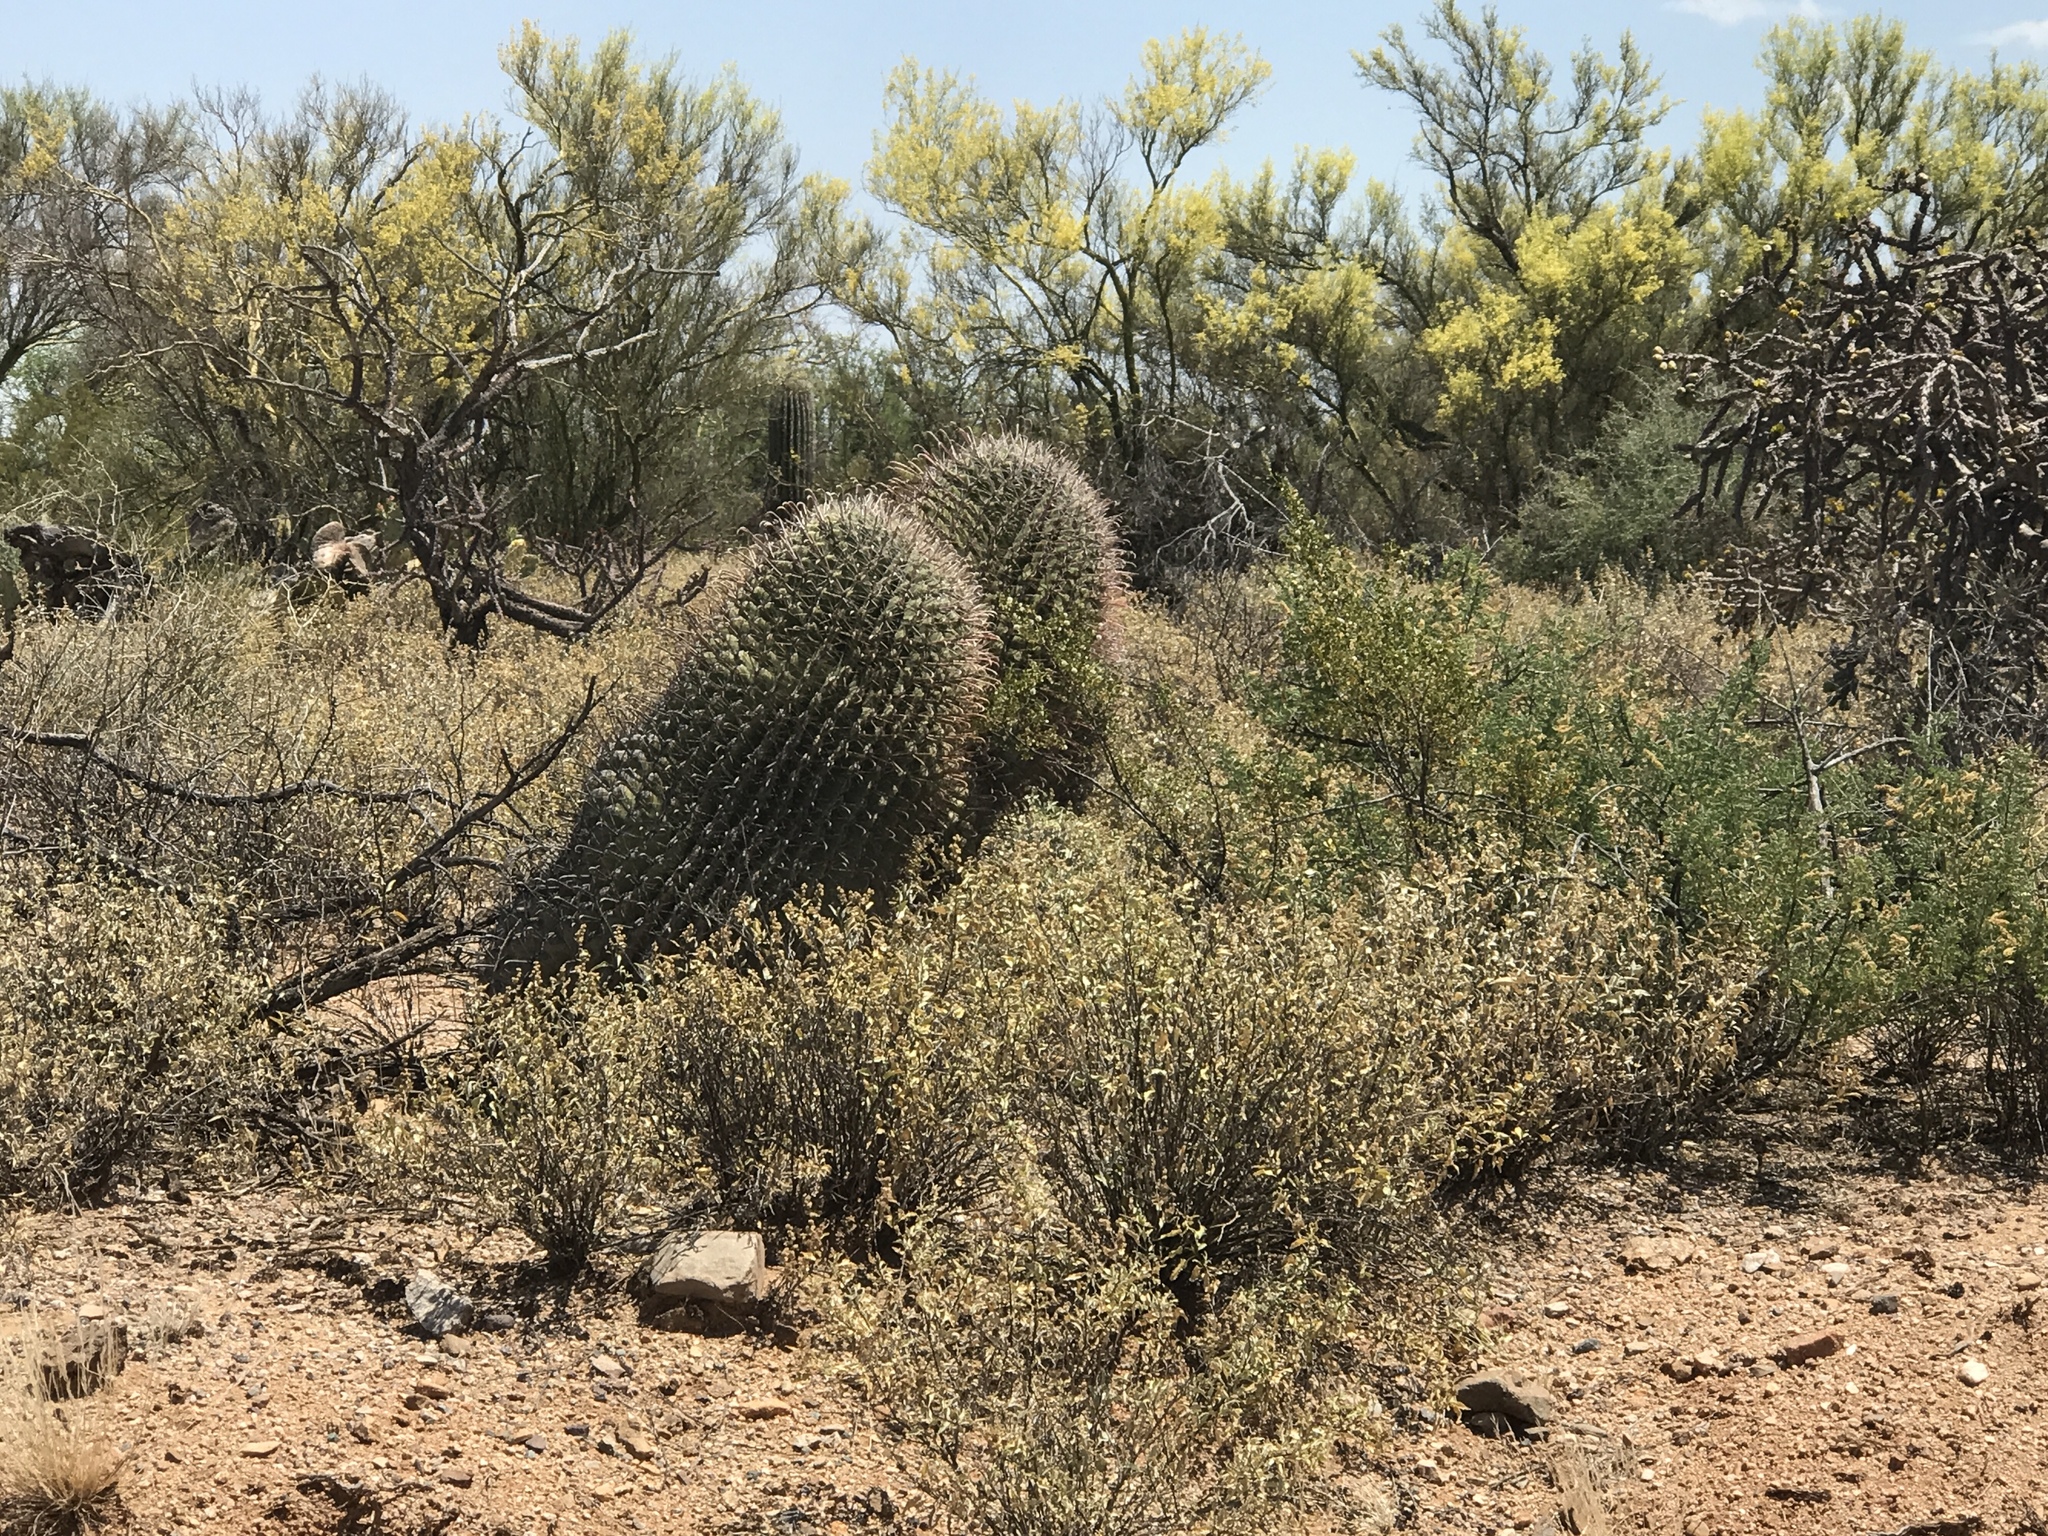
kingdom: Plantae
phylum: Tracheophyta
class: Magnoliopsida
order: Caryophyllales
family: Cactaceae
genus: Ferocactus
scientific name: Ferocactus wislizeni
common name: Candy barrel cactus
